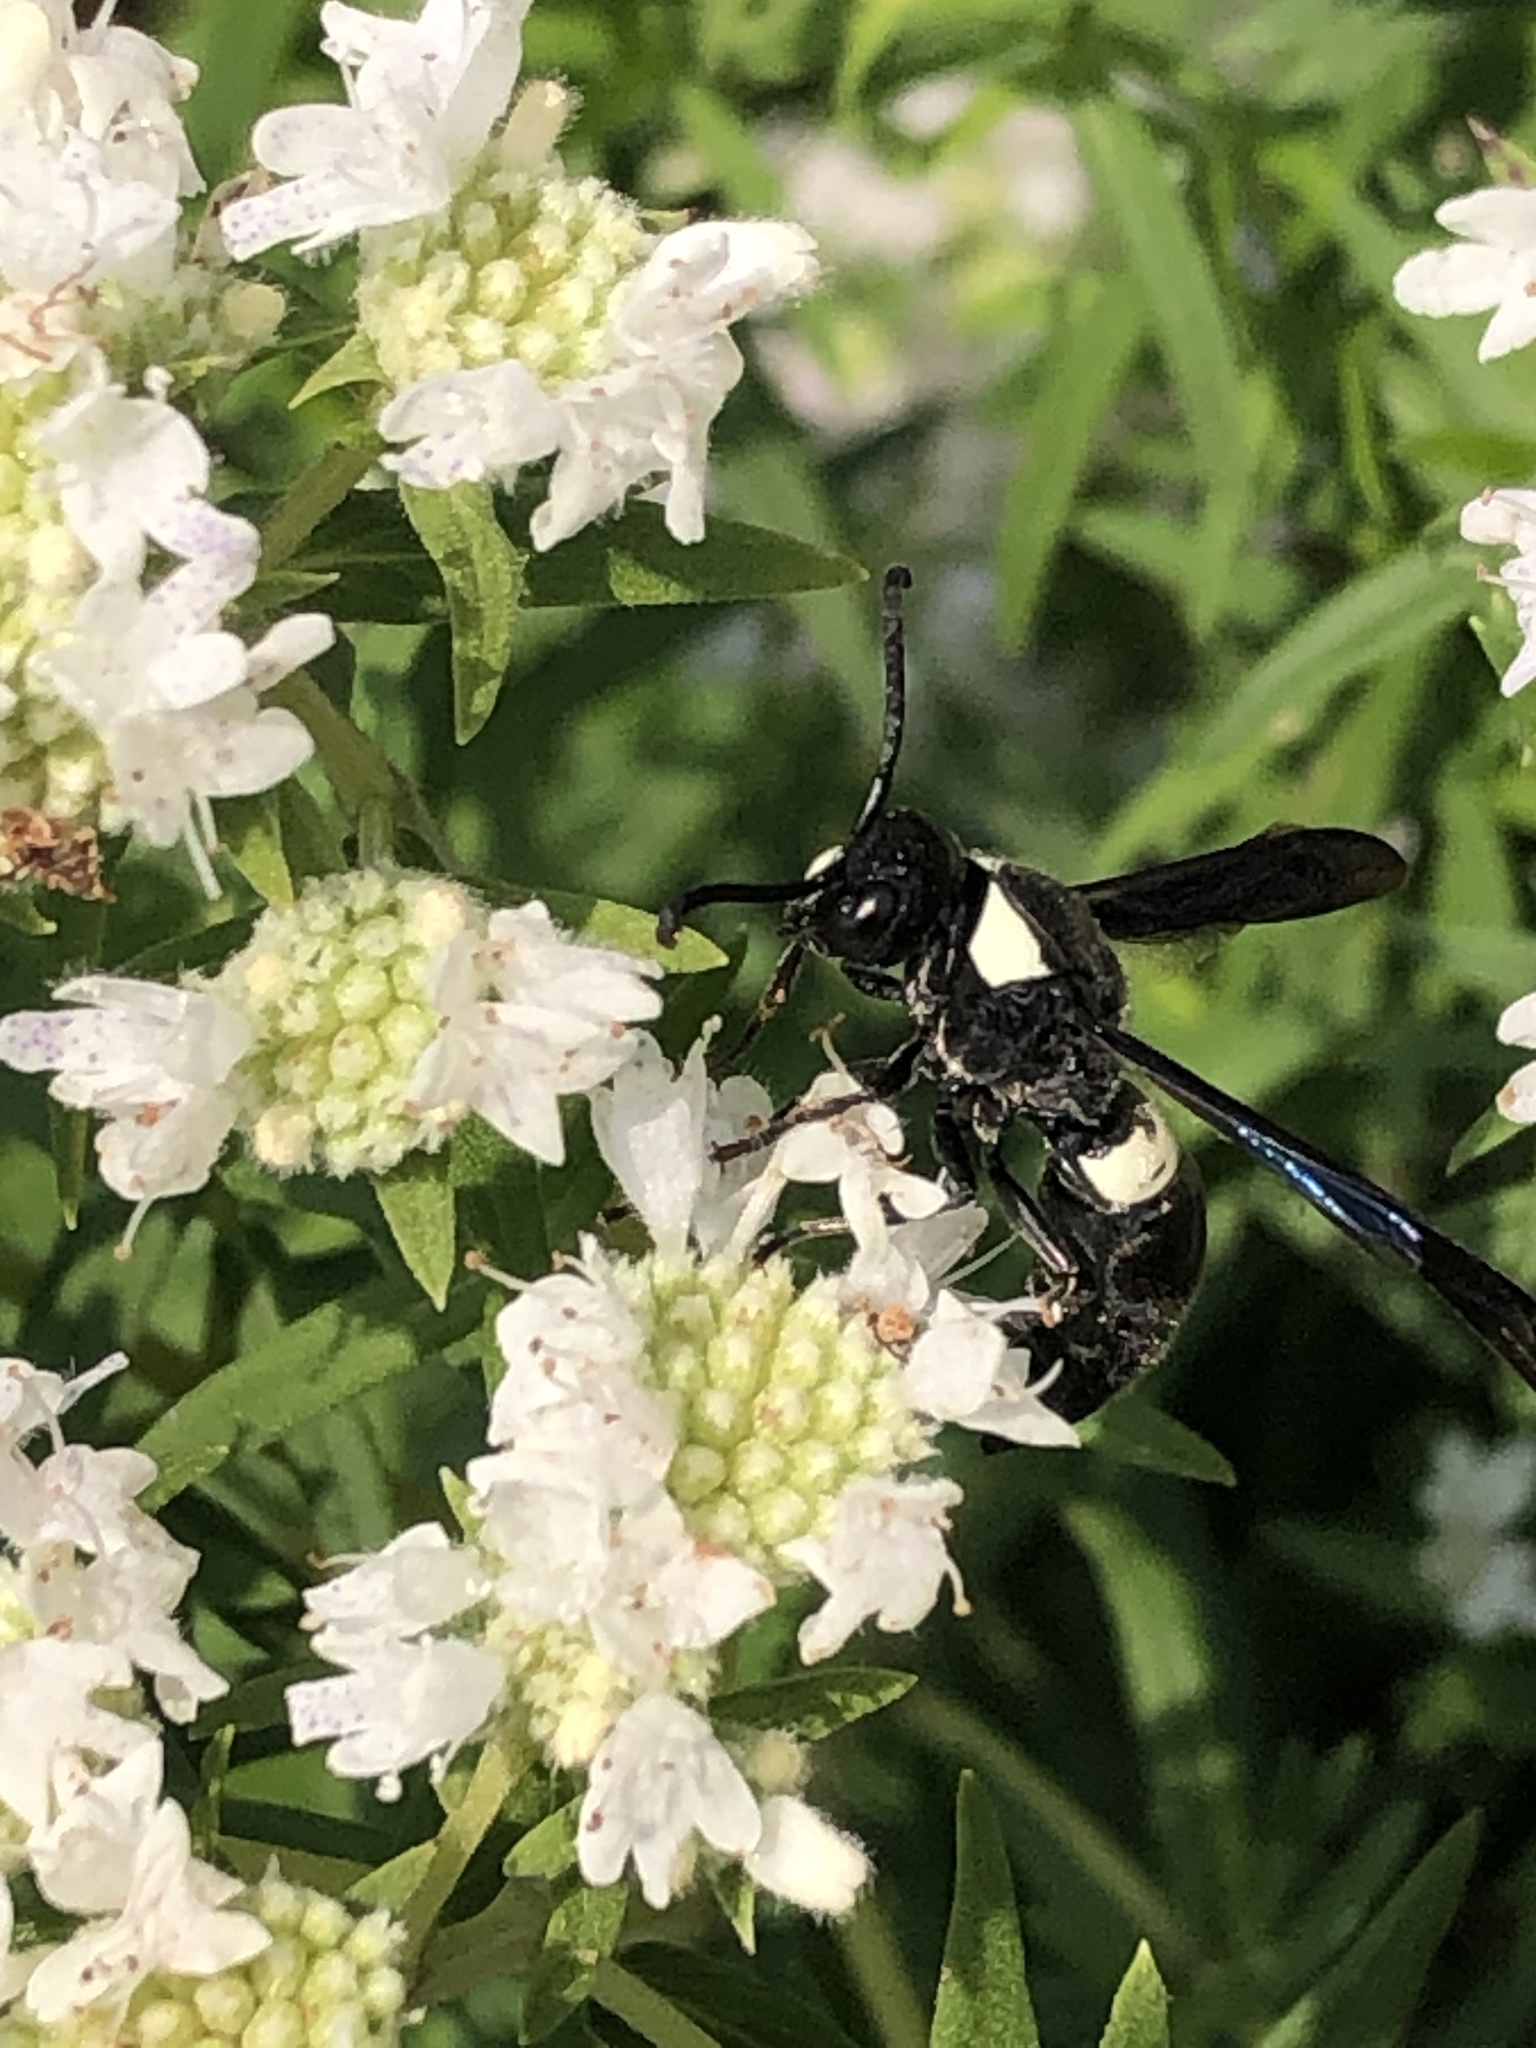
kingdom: Animalia
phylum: Arthropoda
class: Insecta
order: Hymenoptera
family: Eumenidae
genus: Monobia
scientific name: Monobia quadridens
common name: Four-toothed mason wasp
